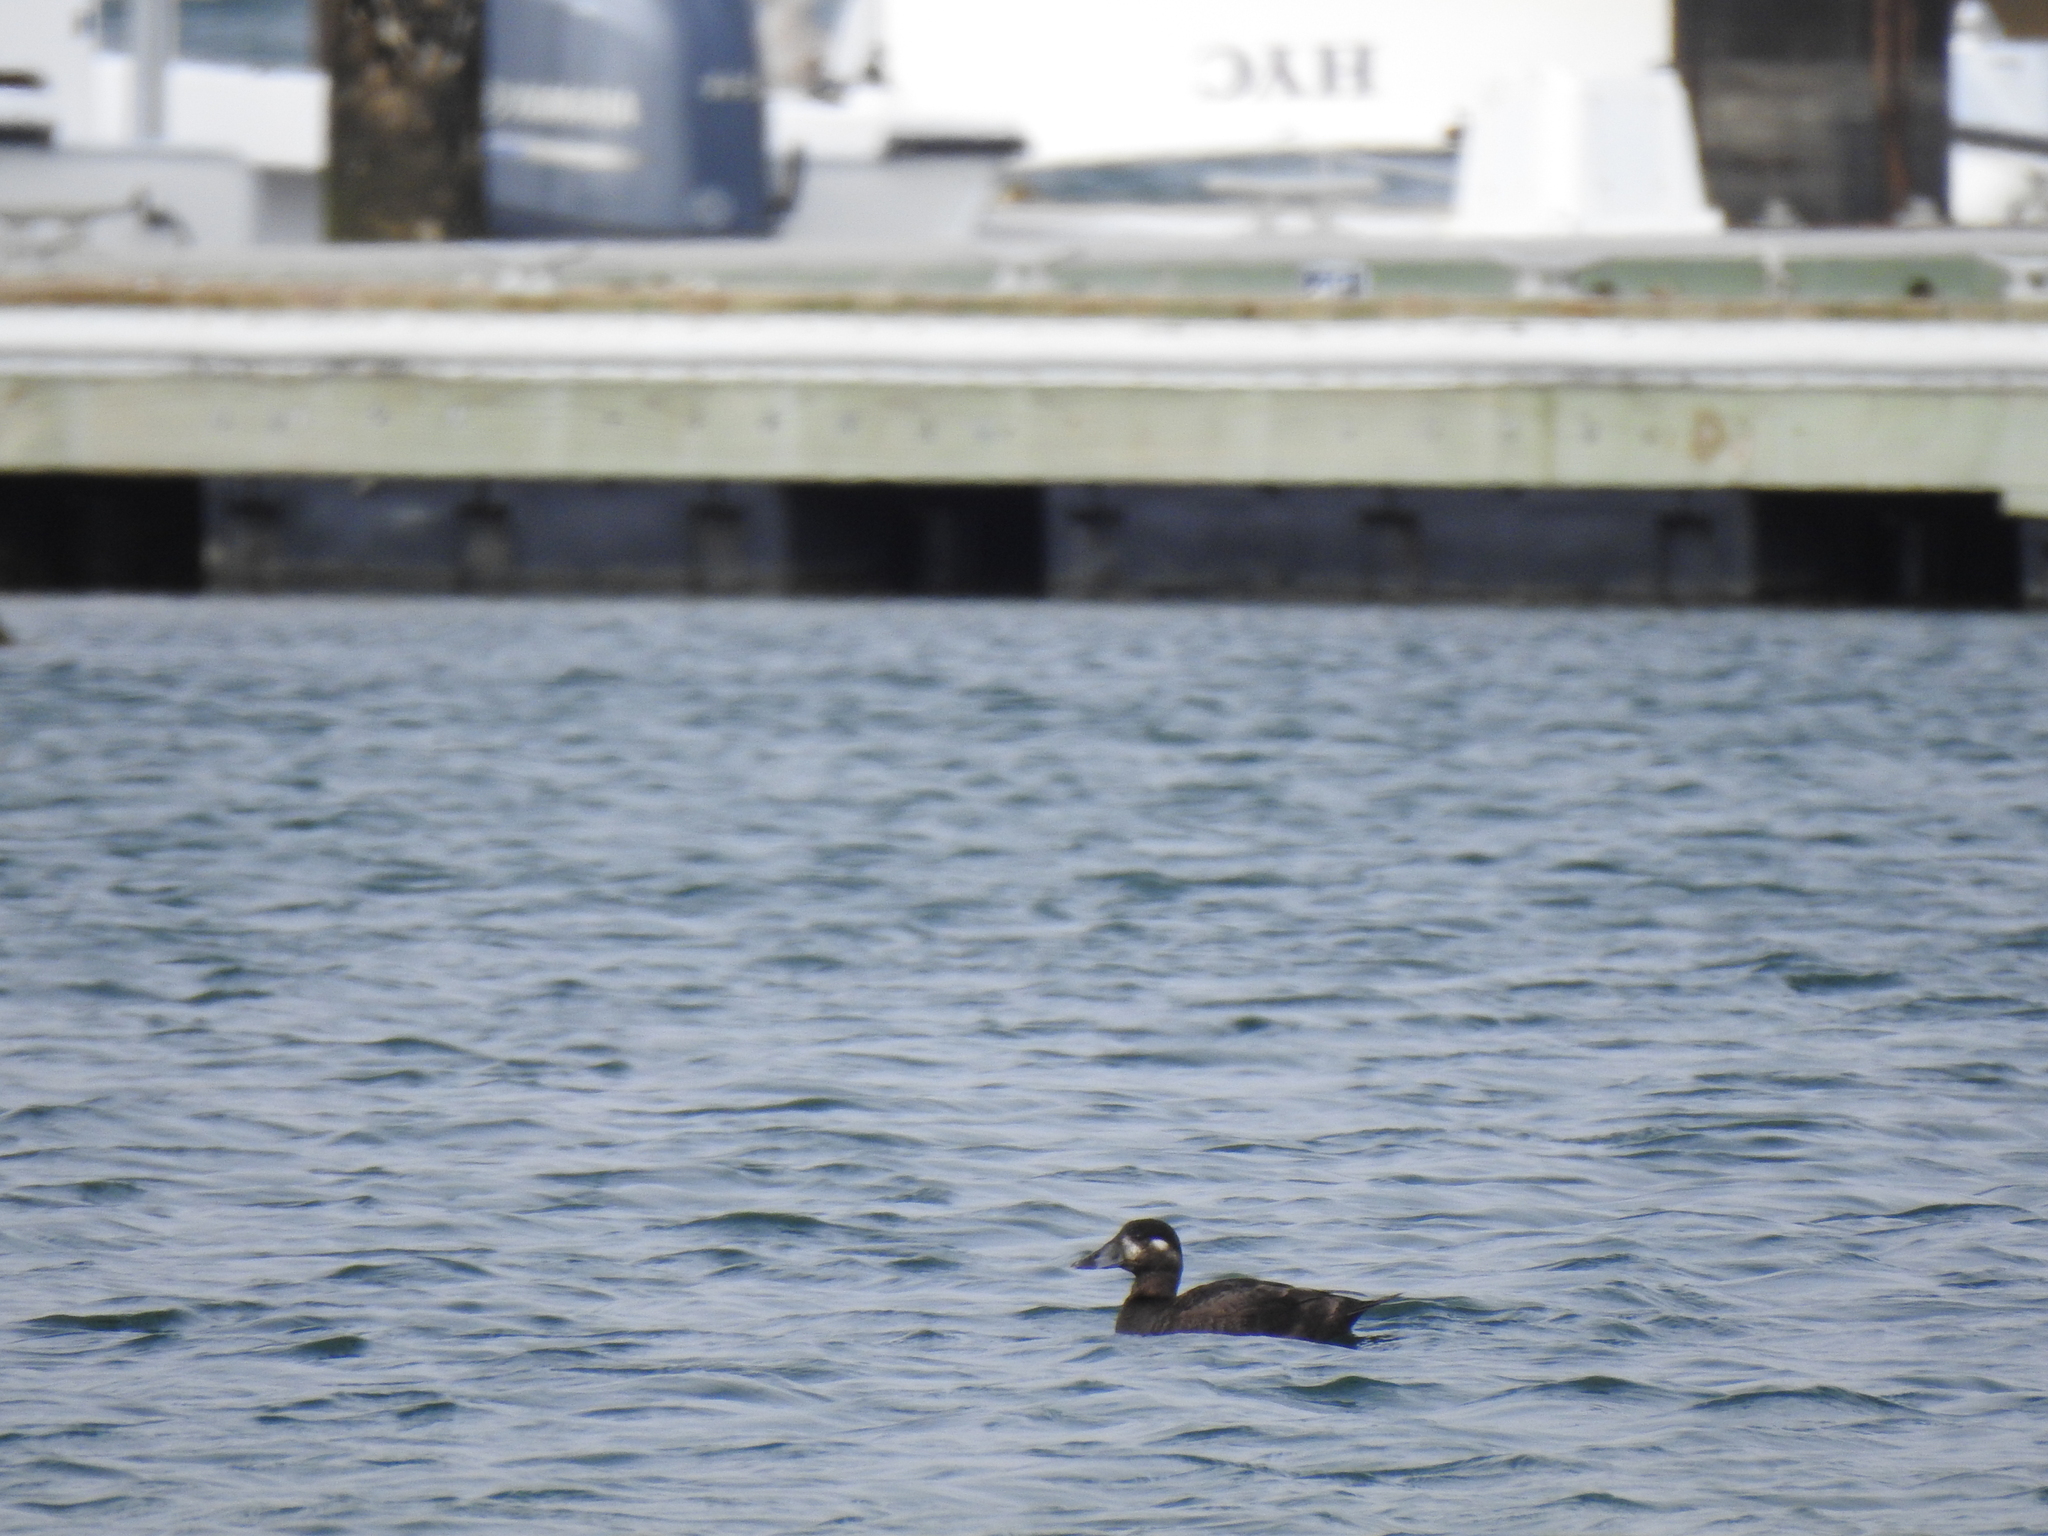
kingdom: Animalia
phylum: Chordata
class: Aves
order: Anseriformes
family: Anatidae
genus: Melanitta
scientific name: Melanitta perspicillata
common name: Surf scoter
